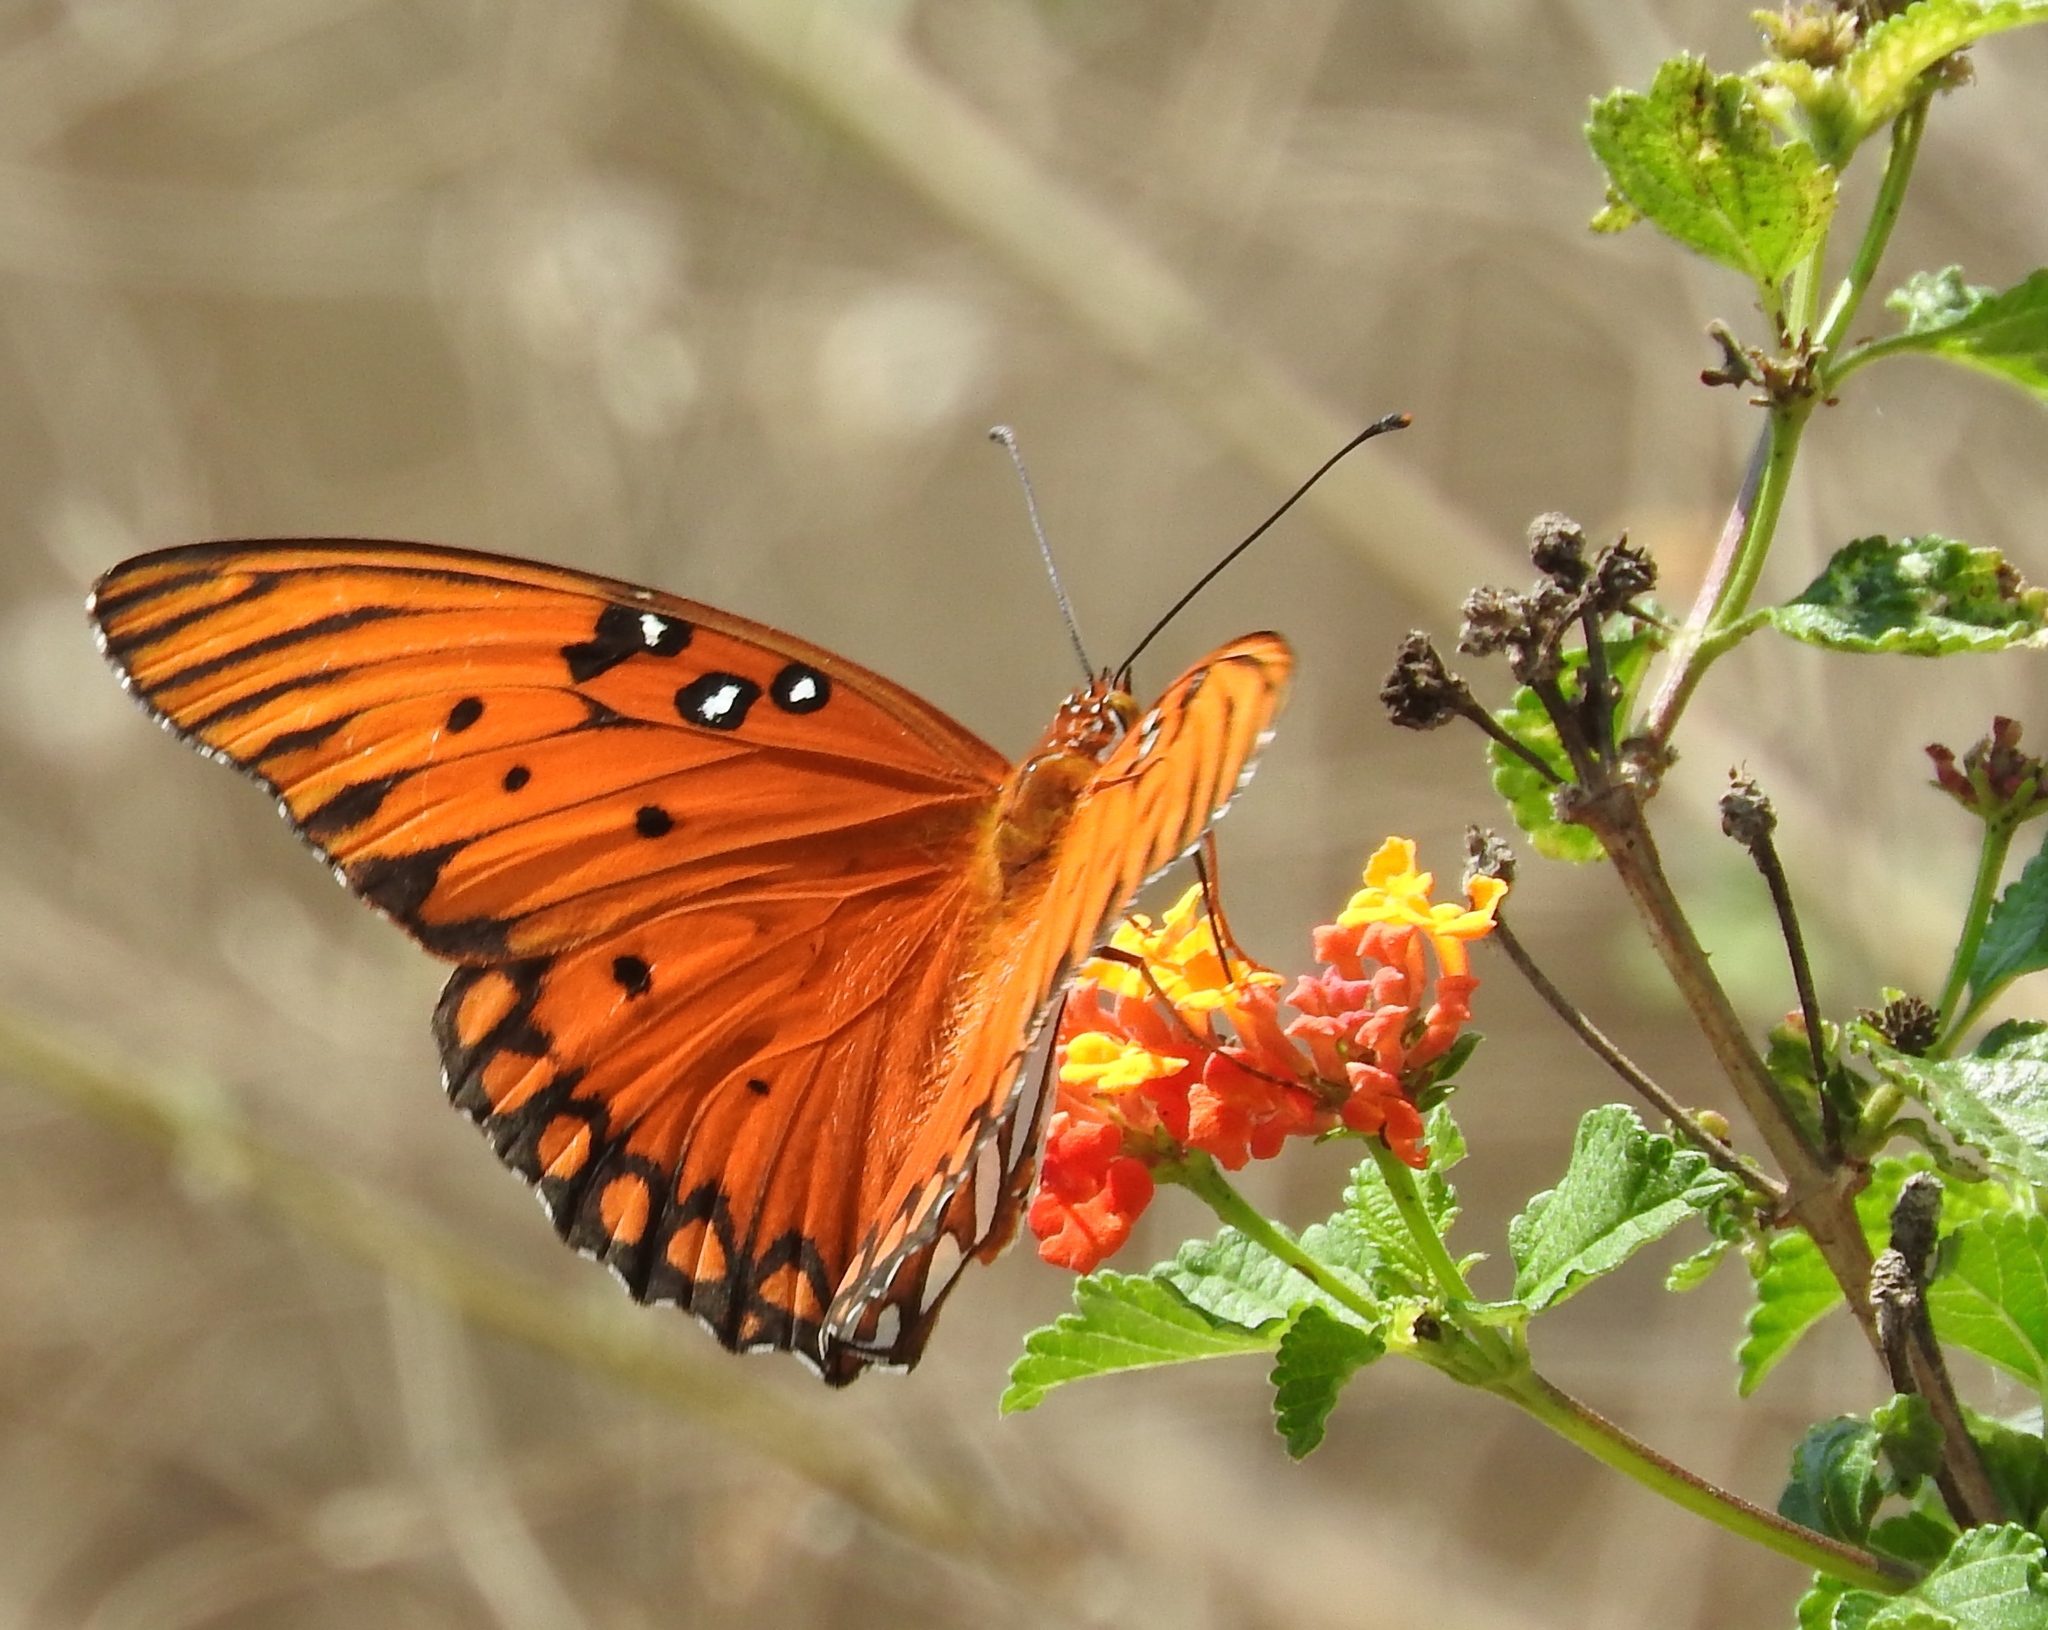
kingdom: Animalia
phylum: Arthropoda
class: Insecta
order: Lepidoptera
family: Nymphalidae
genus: Dione
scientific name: Dione vanillae
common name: Gulf fritillary
